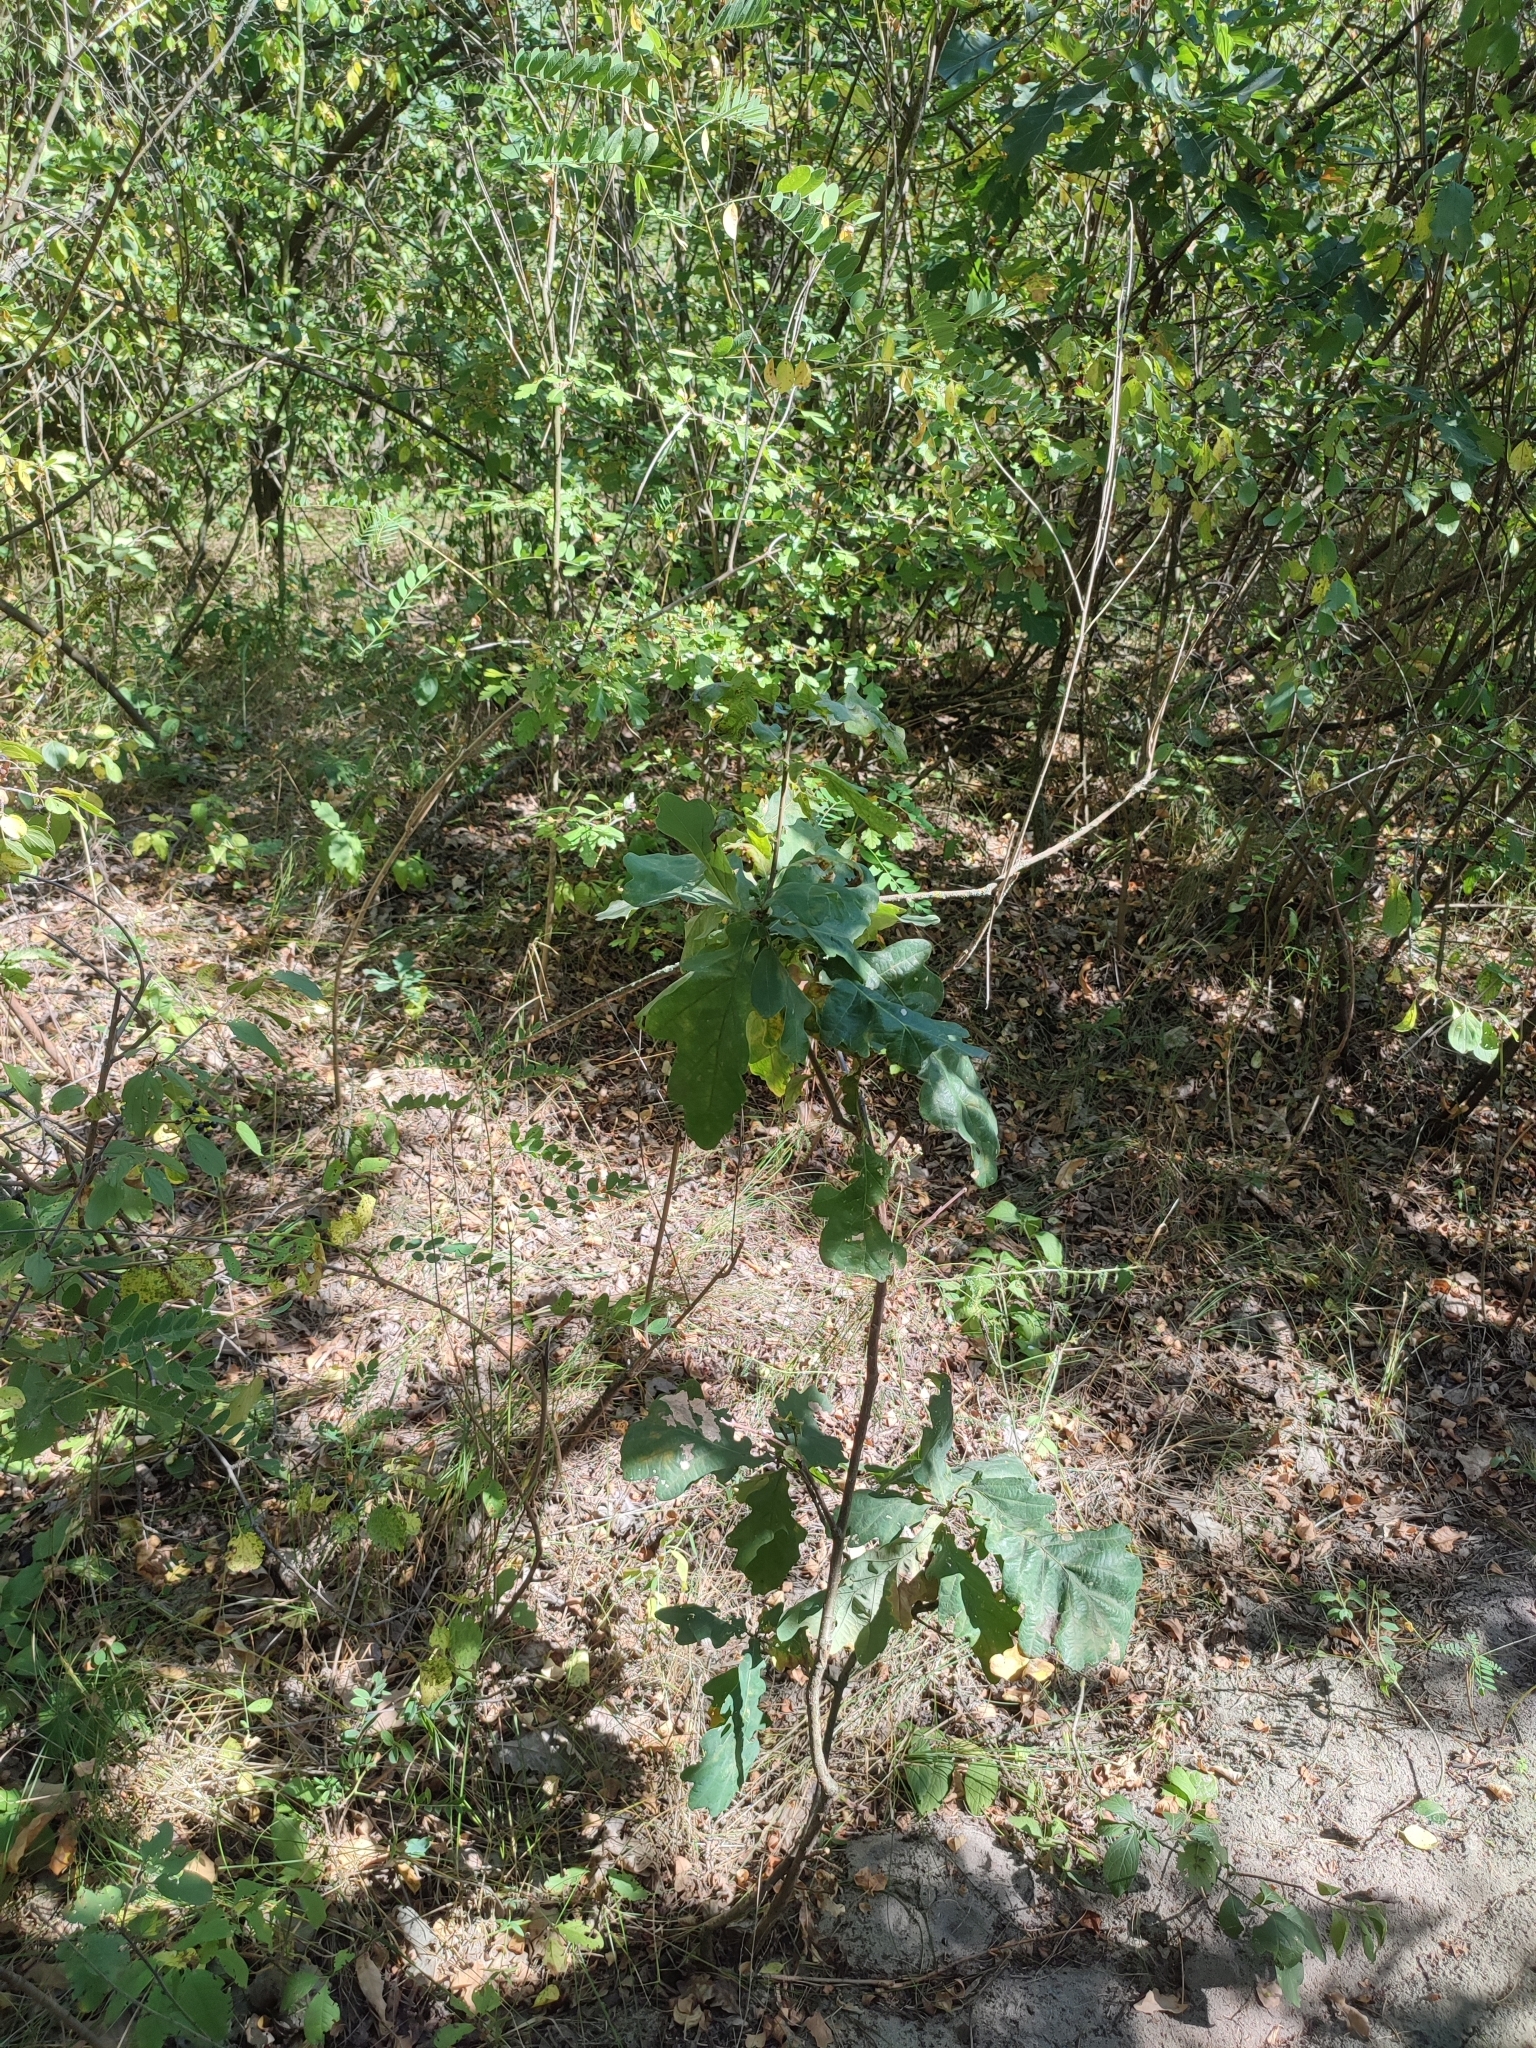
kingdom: Plantae
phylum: Tracheophyta
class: Magnoliopsida
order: Fagales
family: Fagaceae
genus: Quercus
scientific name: Quercus robur
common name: Pedunculate oak
